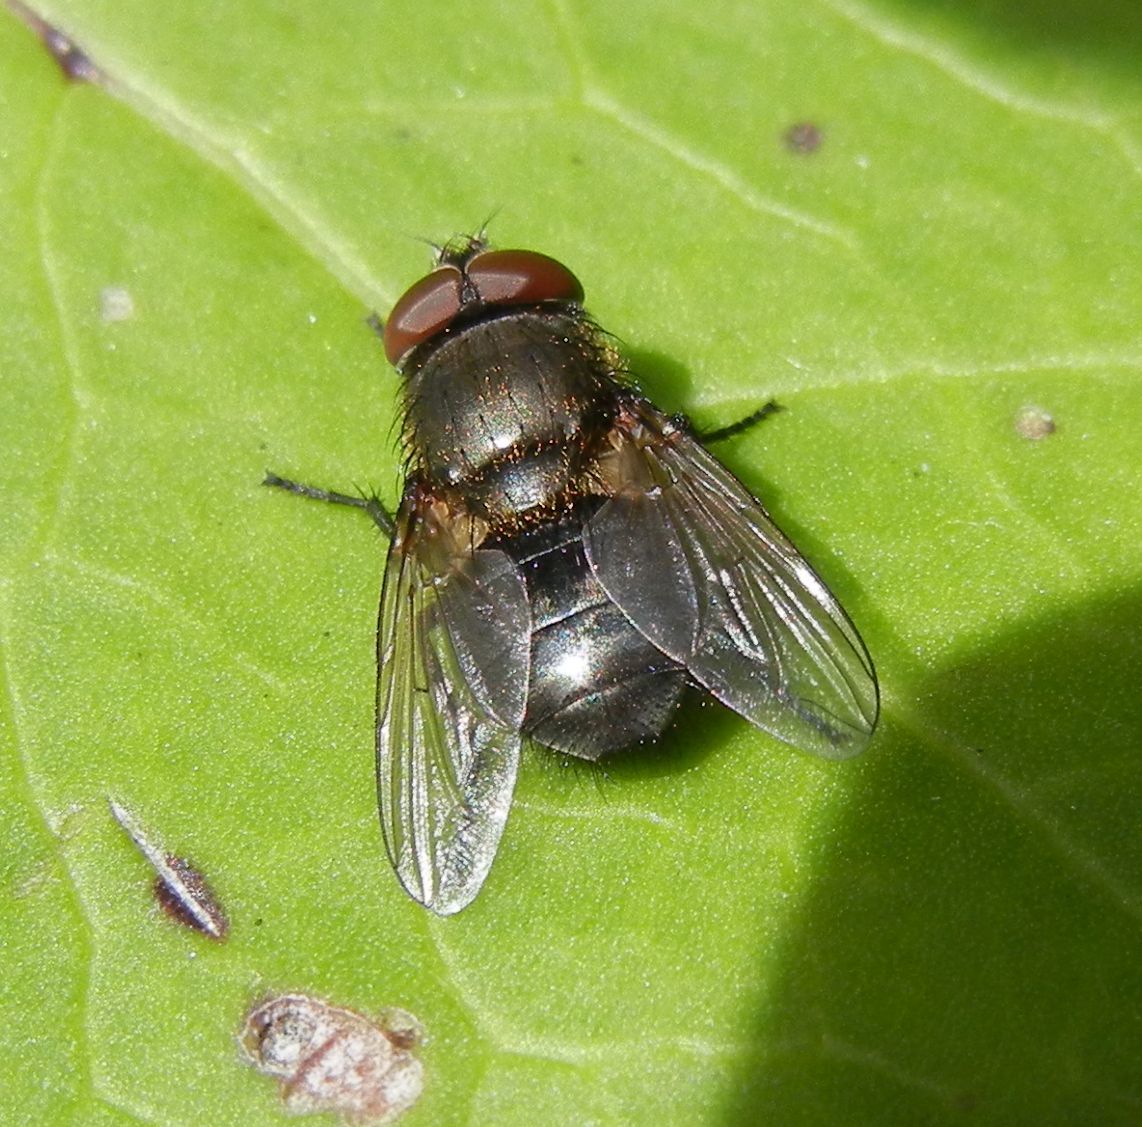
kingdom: Animalia
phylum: Arthropoda
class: Insecta
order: Diptera
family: Polleniidae
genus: Pollenia
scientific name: Pollenia amentaria
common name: Black-bellied clusterfly
